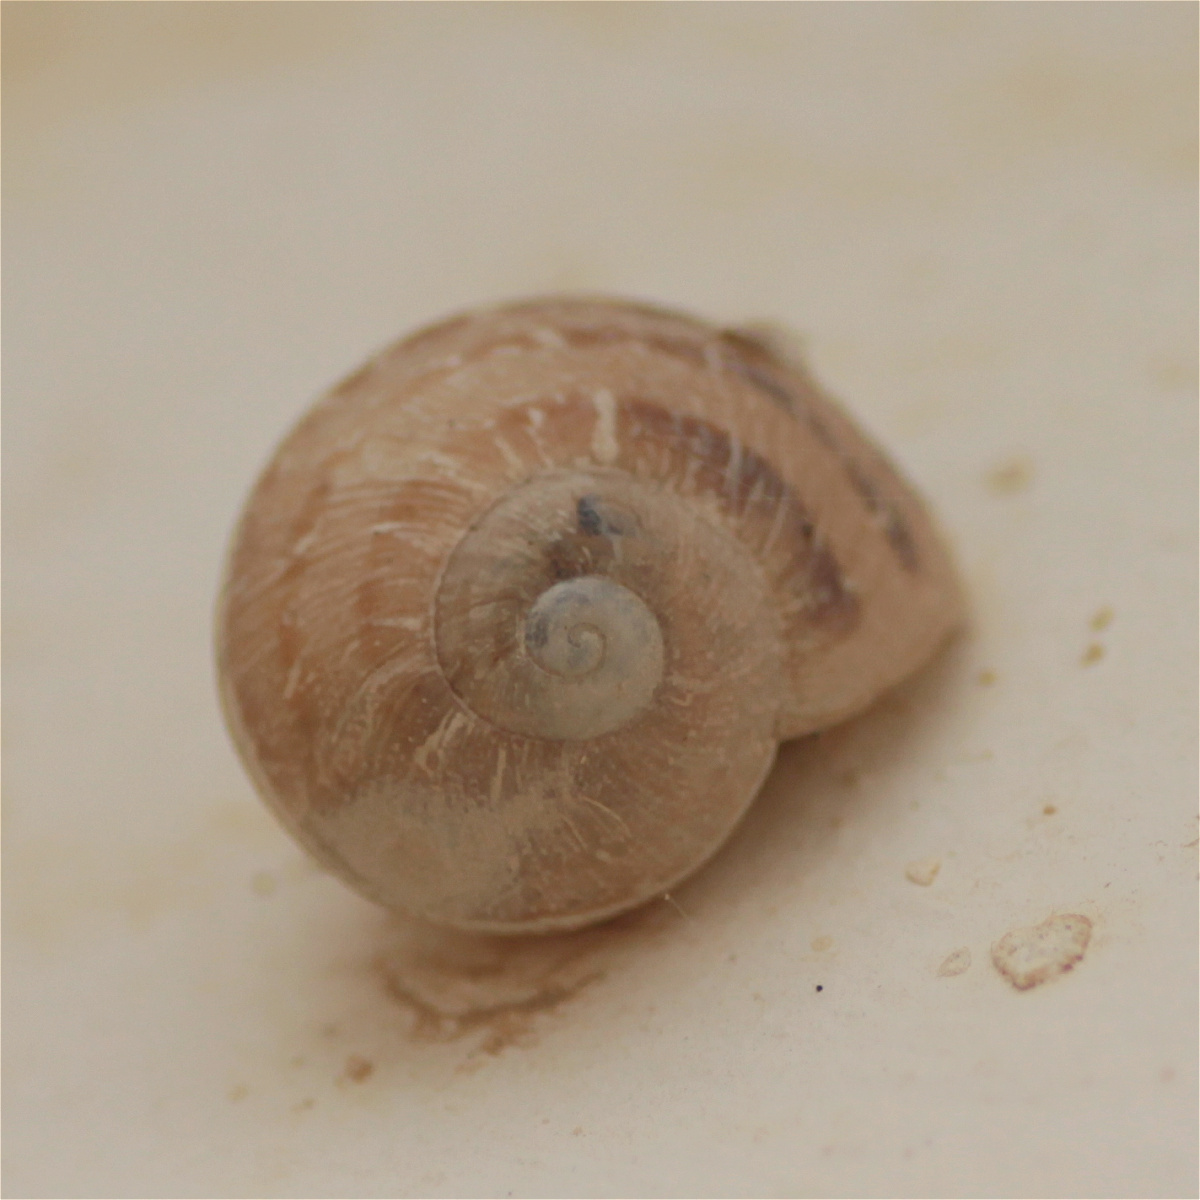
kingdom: Animalia
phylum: Mollusca
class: Gastropoda
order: Stylommatophora
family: Helicidae
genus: Cornu
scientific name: Cornu aspersum
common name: Brown garden snail
